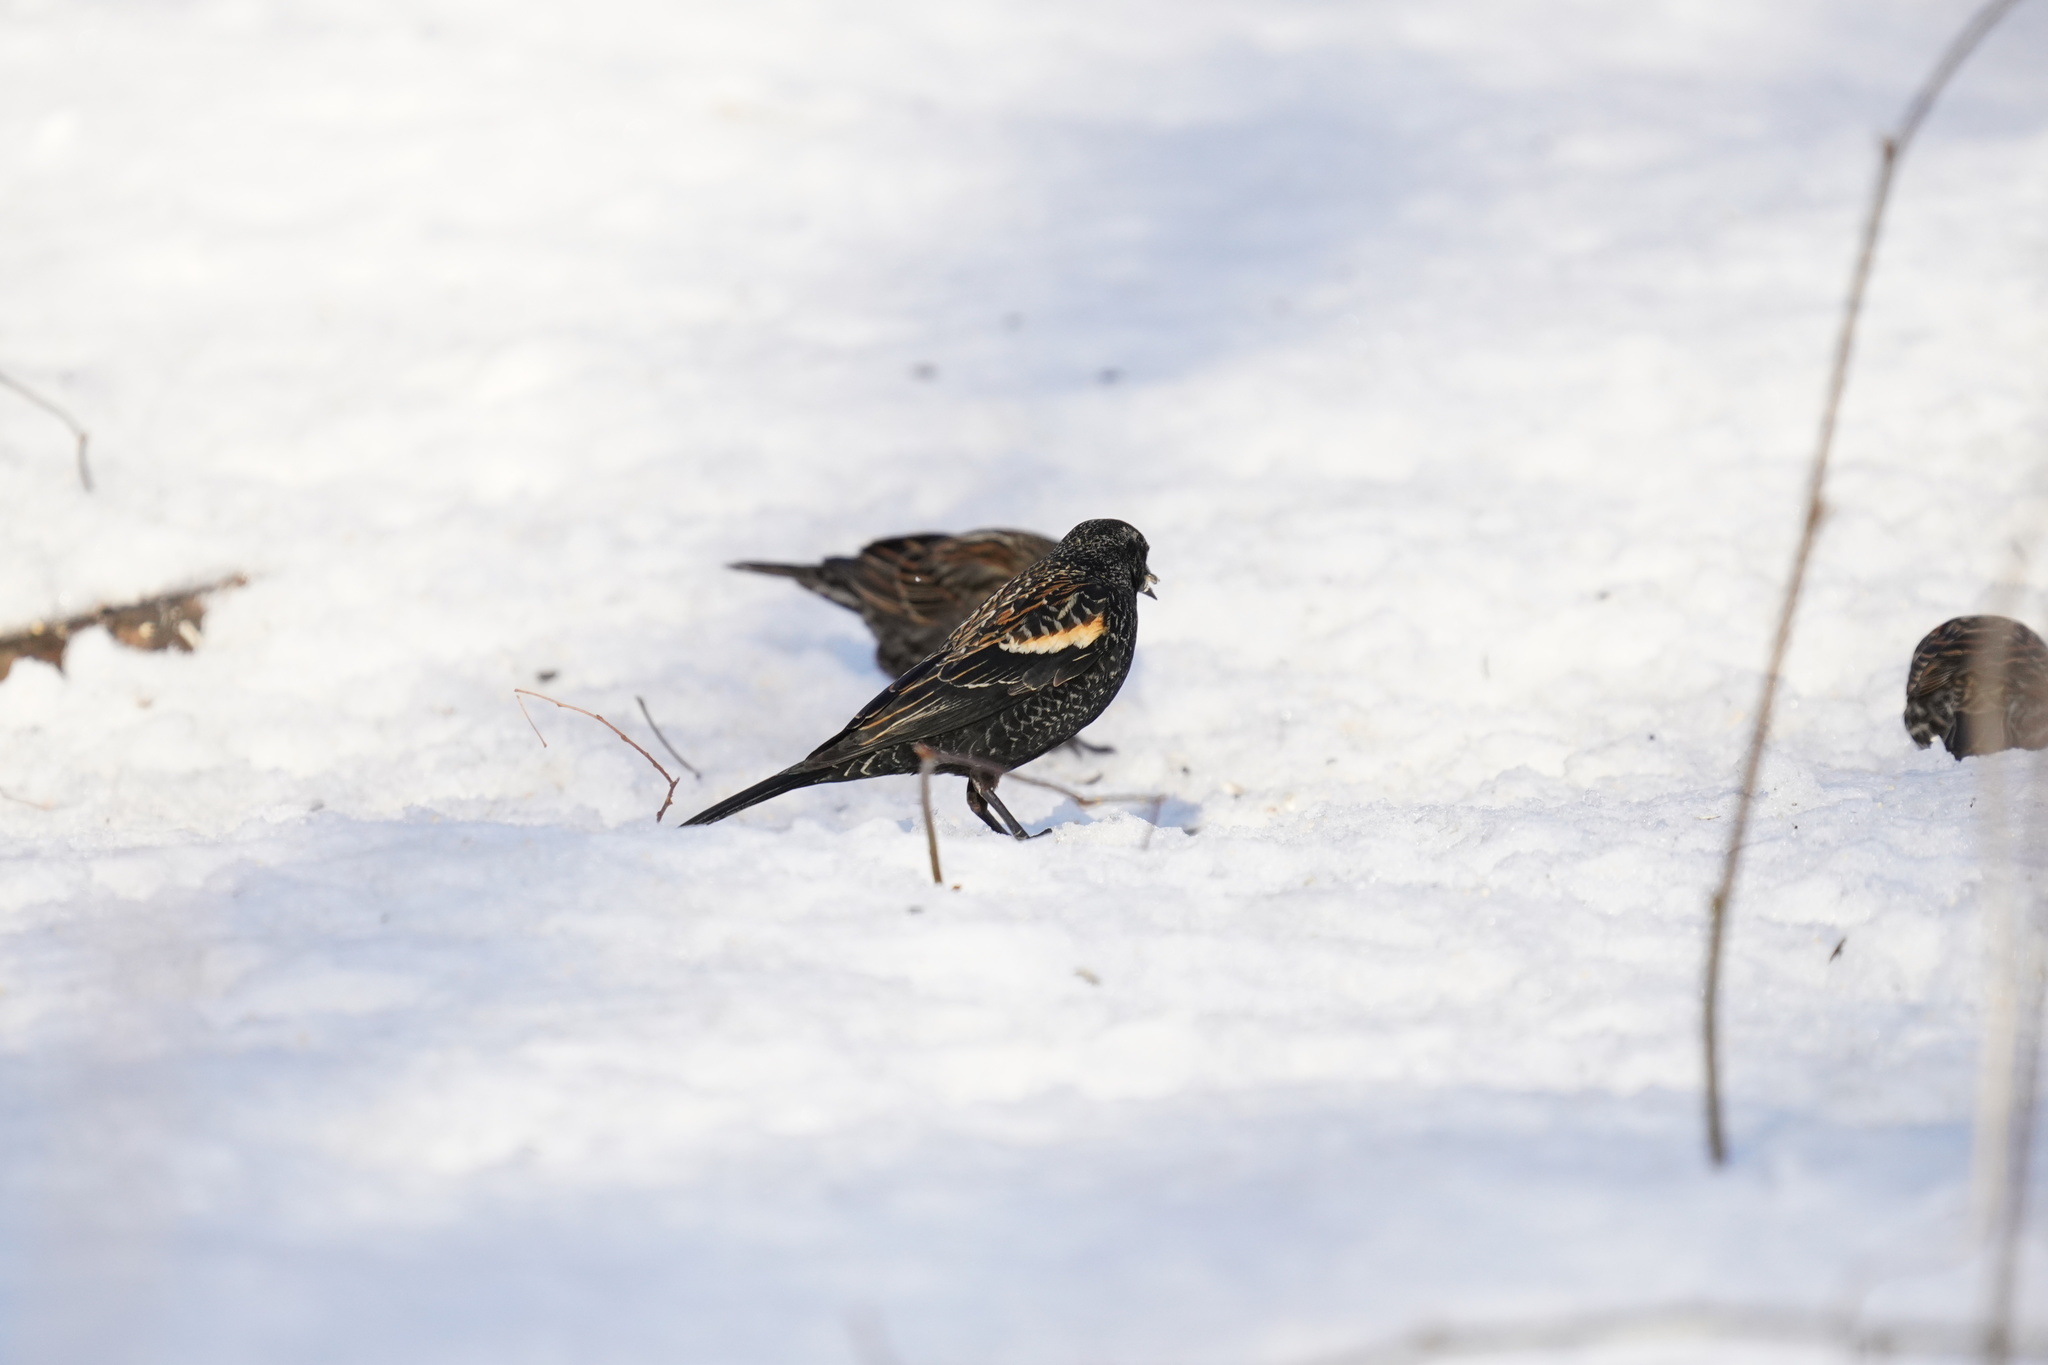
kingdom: Animalia
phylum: Chordata
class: Aves
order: Passeriformes
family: Icteridae
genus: Agelaius
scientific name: Agelaius phoeniceus
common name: Red-winged blackbird
